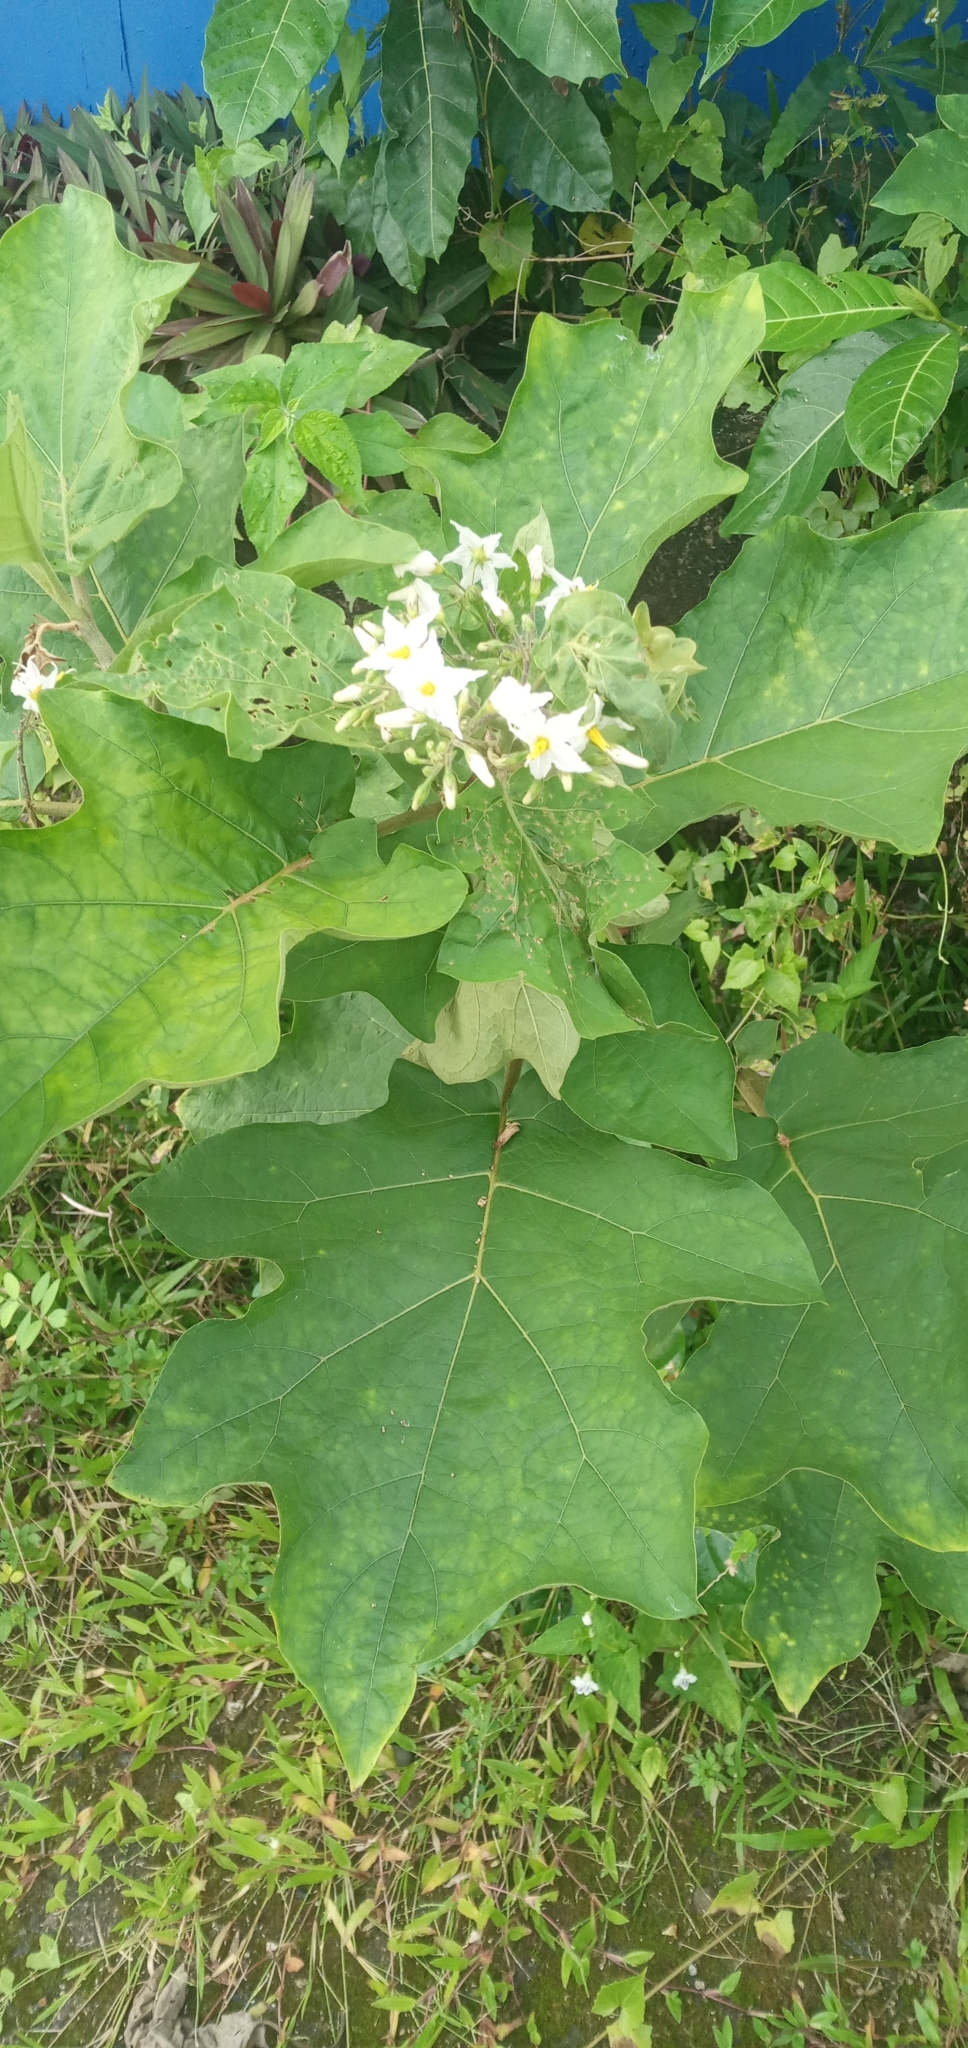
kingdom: Plantae
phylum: Tracheophyta
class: Magnoliopsida
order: Solanales
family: Solanaceae
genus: Solanum
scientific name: Solanum torvum
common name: Turkey berry
